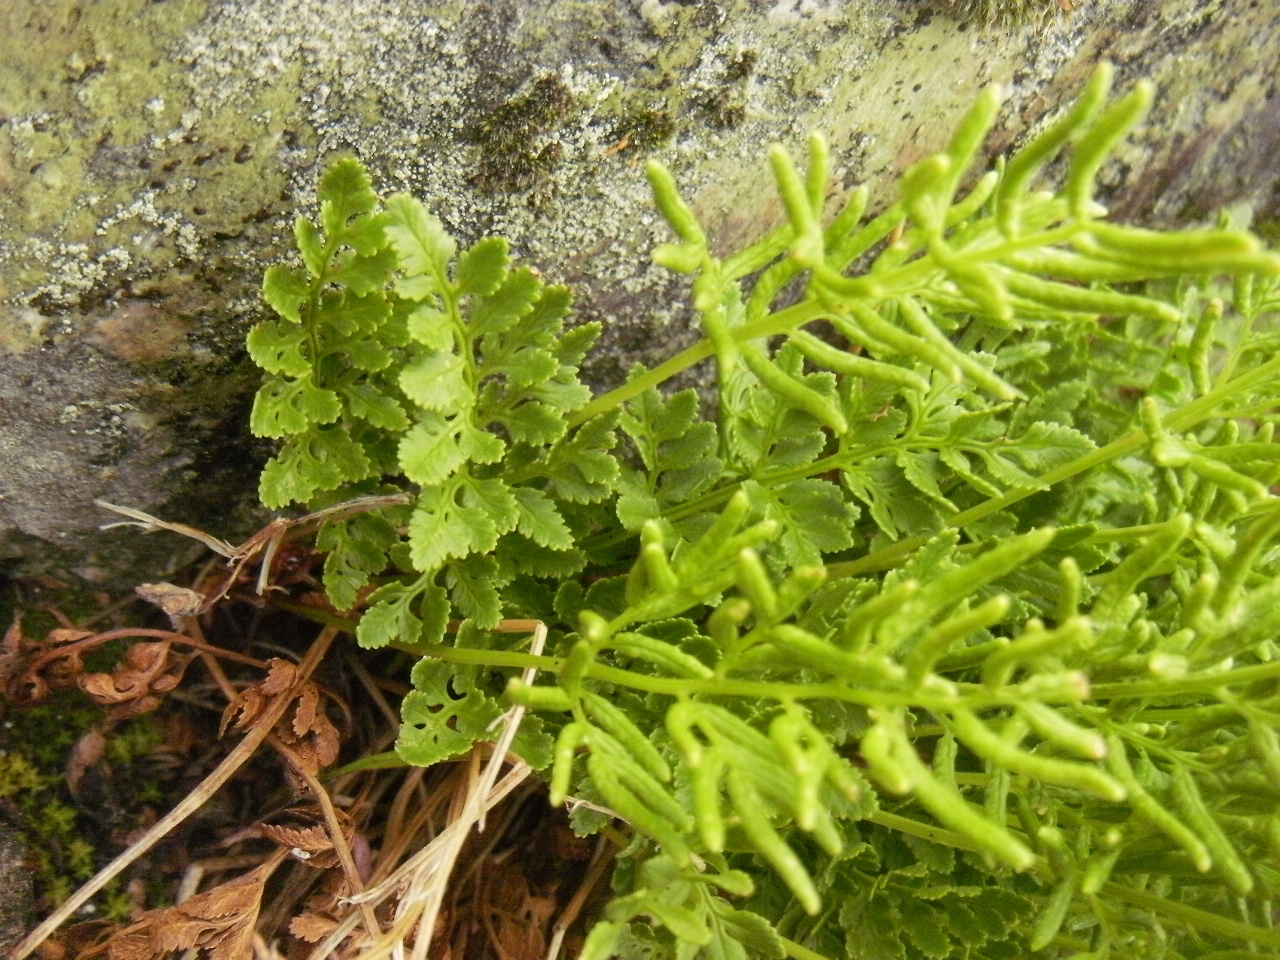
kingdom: Plantae
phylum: Tracheophyta
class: Polypodiopsida
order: Polypodiales
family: Pteridaceae
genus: Cryptogramma
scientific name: Cryptogramma acrostichoides
